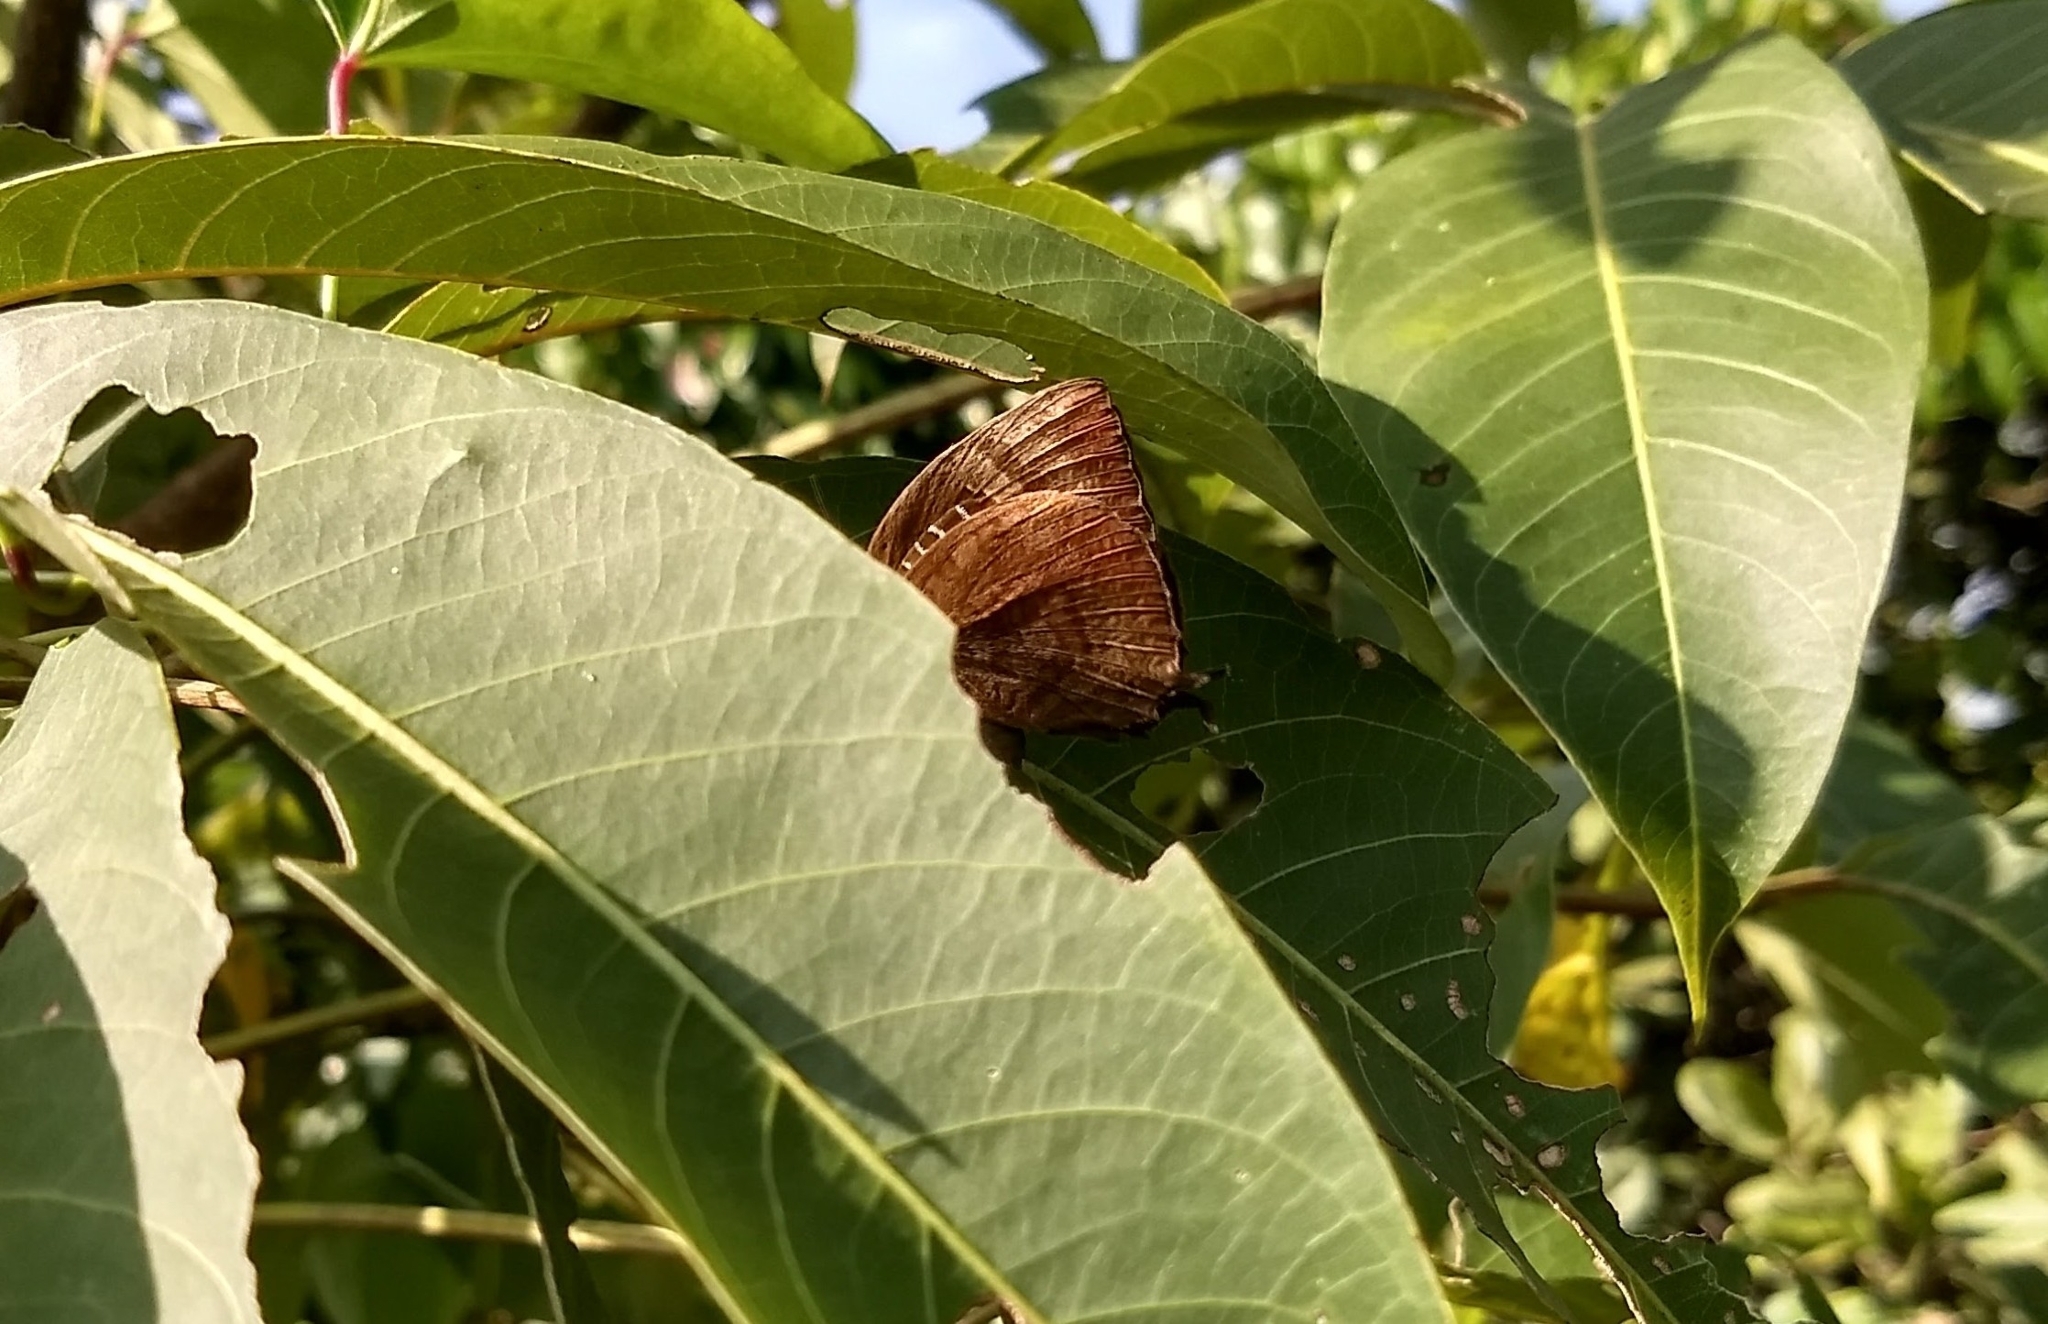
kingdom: Animalia
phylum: Arthropoda
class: Insecta
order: Lepidoptera
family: Lycaenidae
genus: Arhopala
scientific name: Arhopala centaurus
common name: Dull oak-blue
